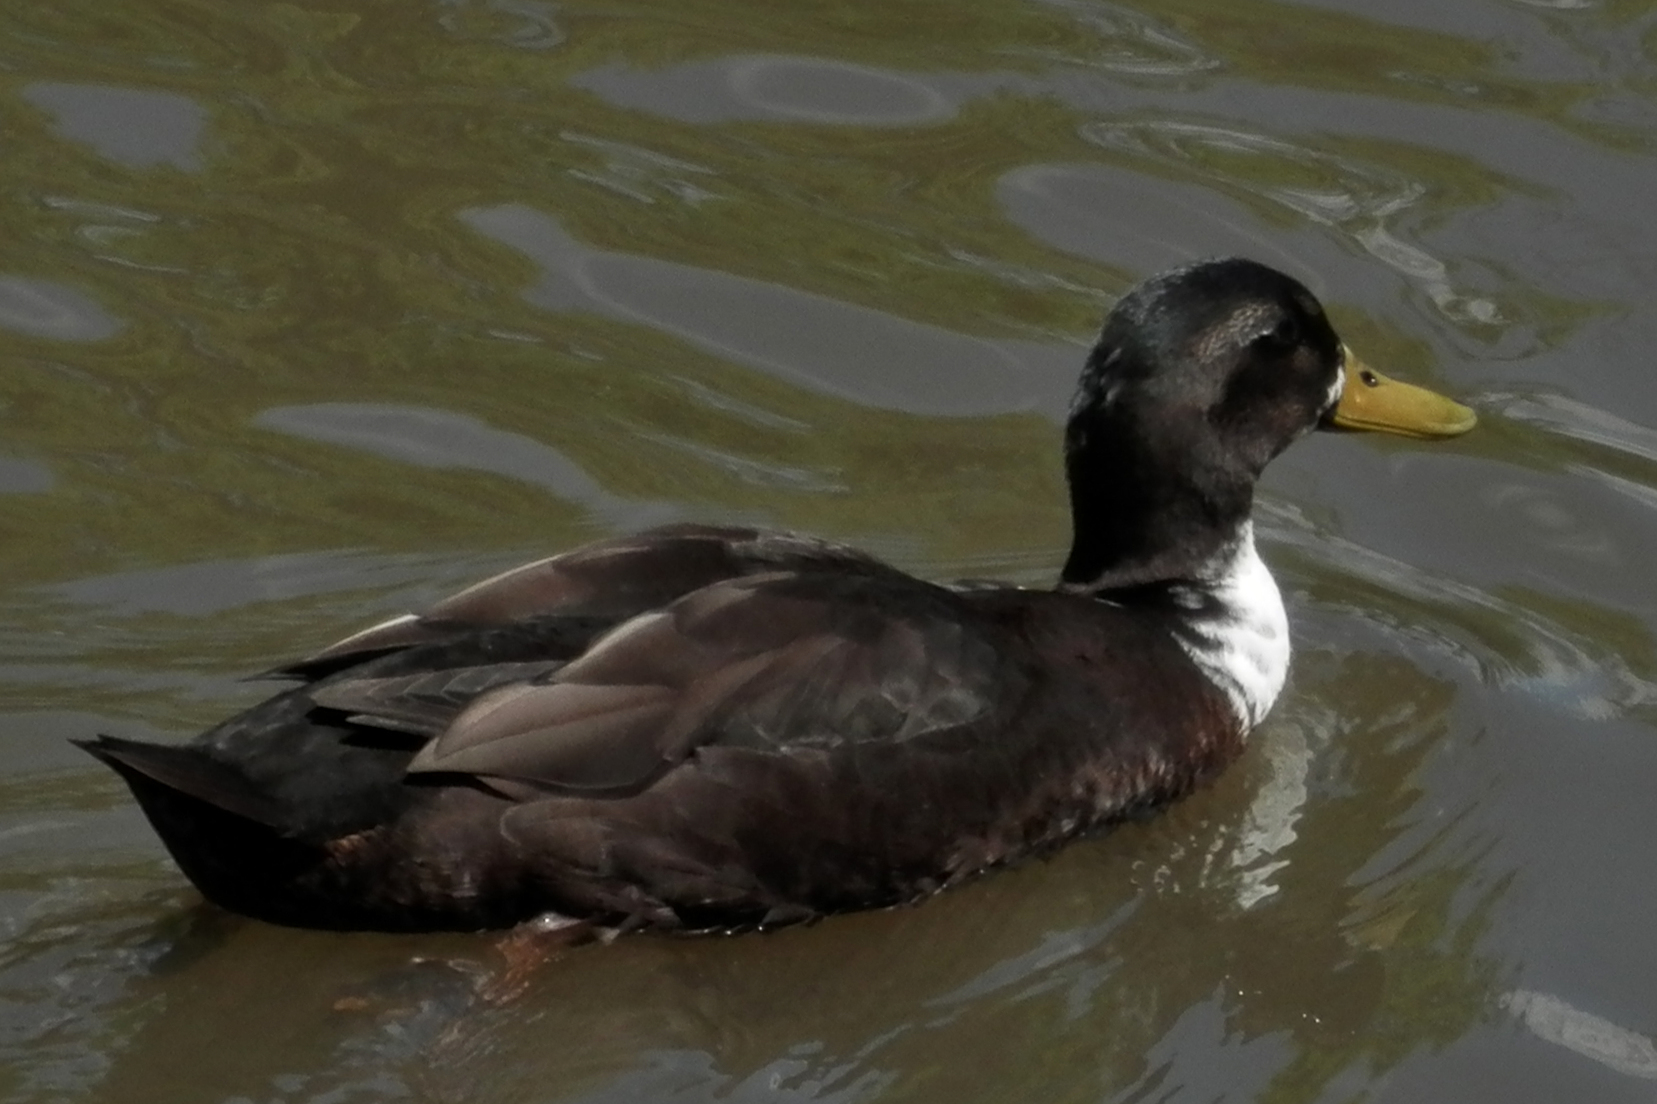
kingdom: Animalia
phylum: Chordata
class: Aves
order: Anseriformes
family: Anatidae
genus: Anas
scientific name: Anas platyrhynchos
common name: Mallard
